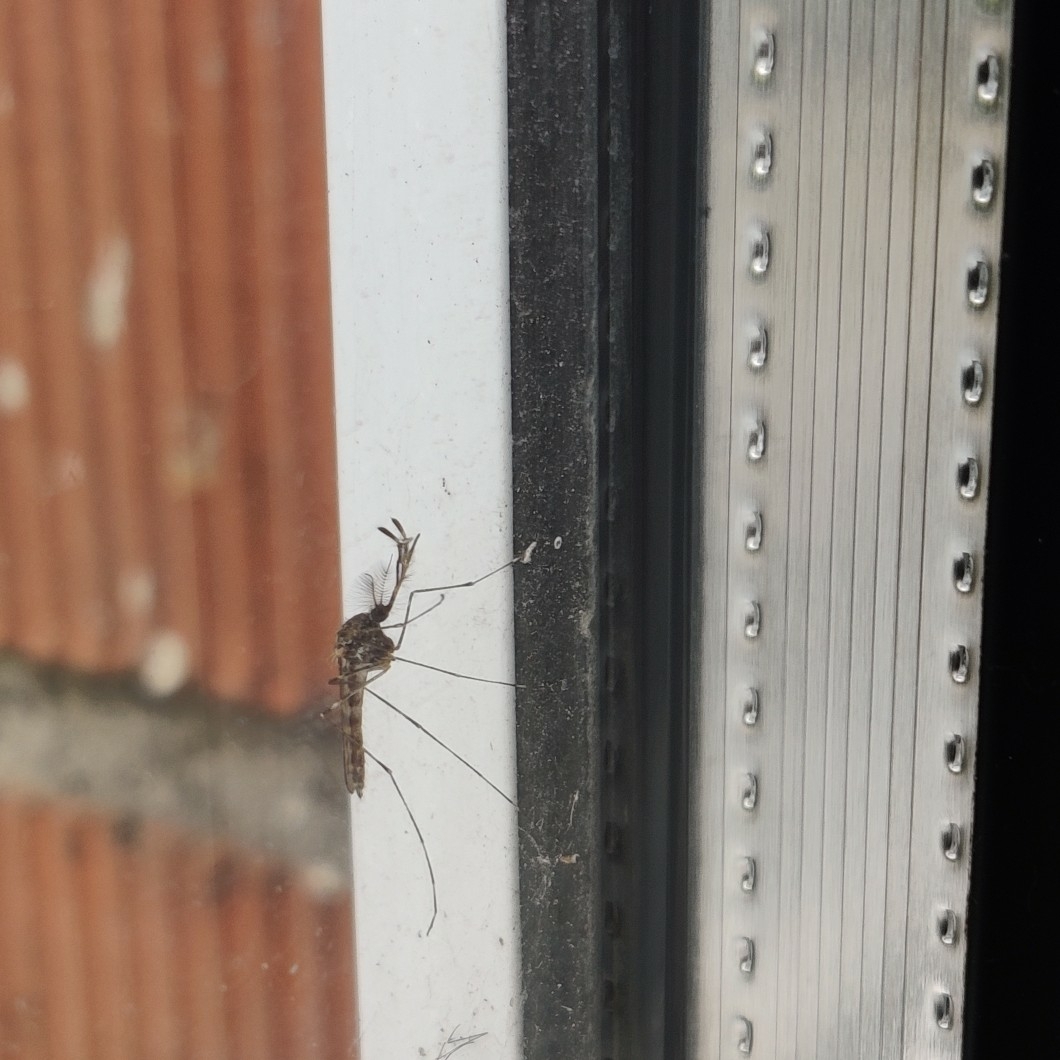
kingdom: Animalia
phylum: Arthropoda
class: Insecta
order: Diptera
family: Culicidae
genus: Culiseta
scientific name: Culiseta annulata
